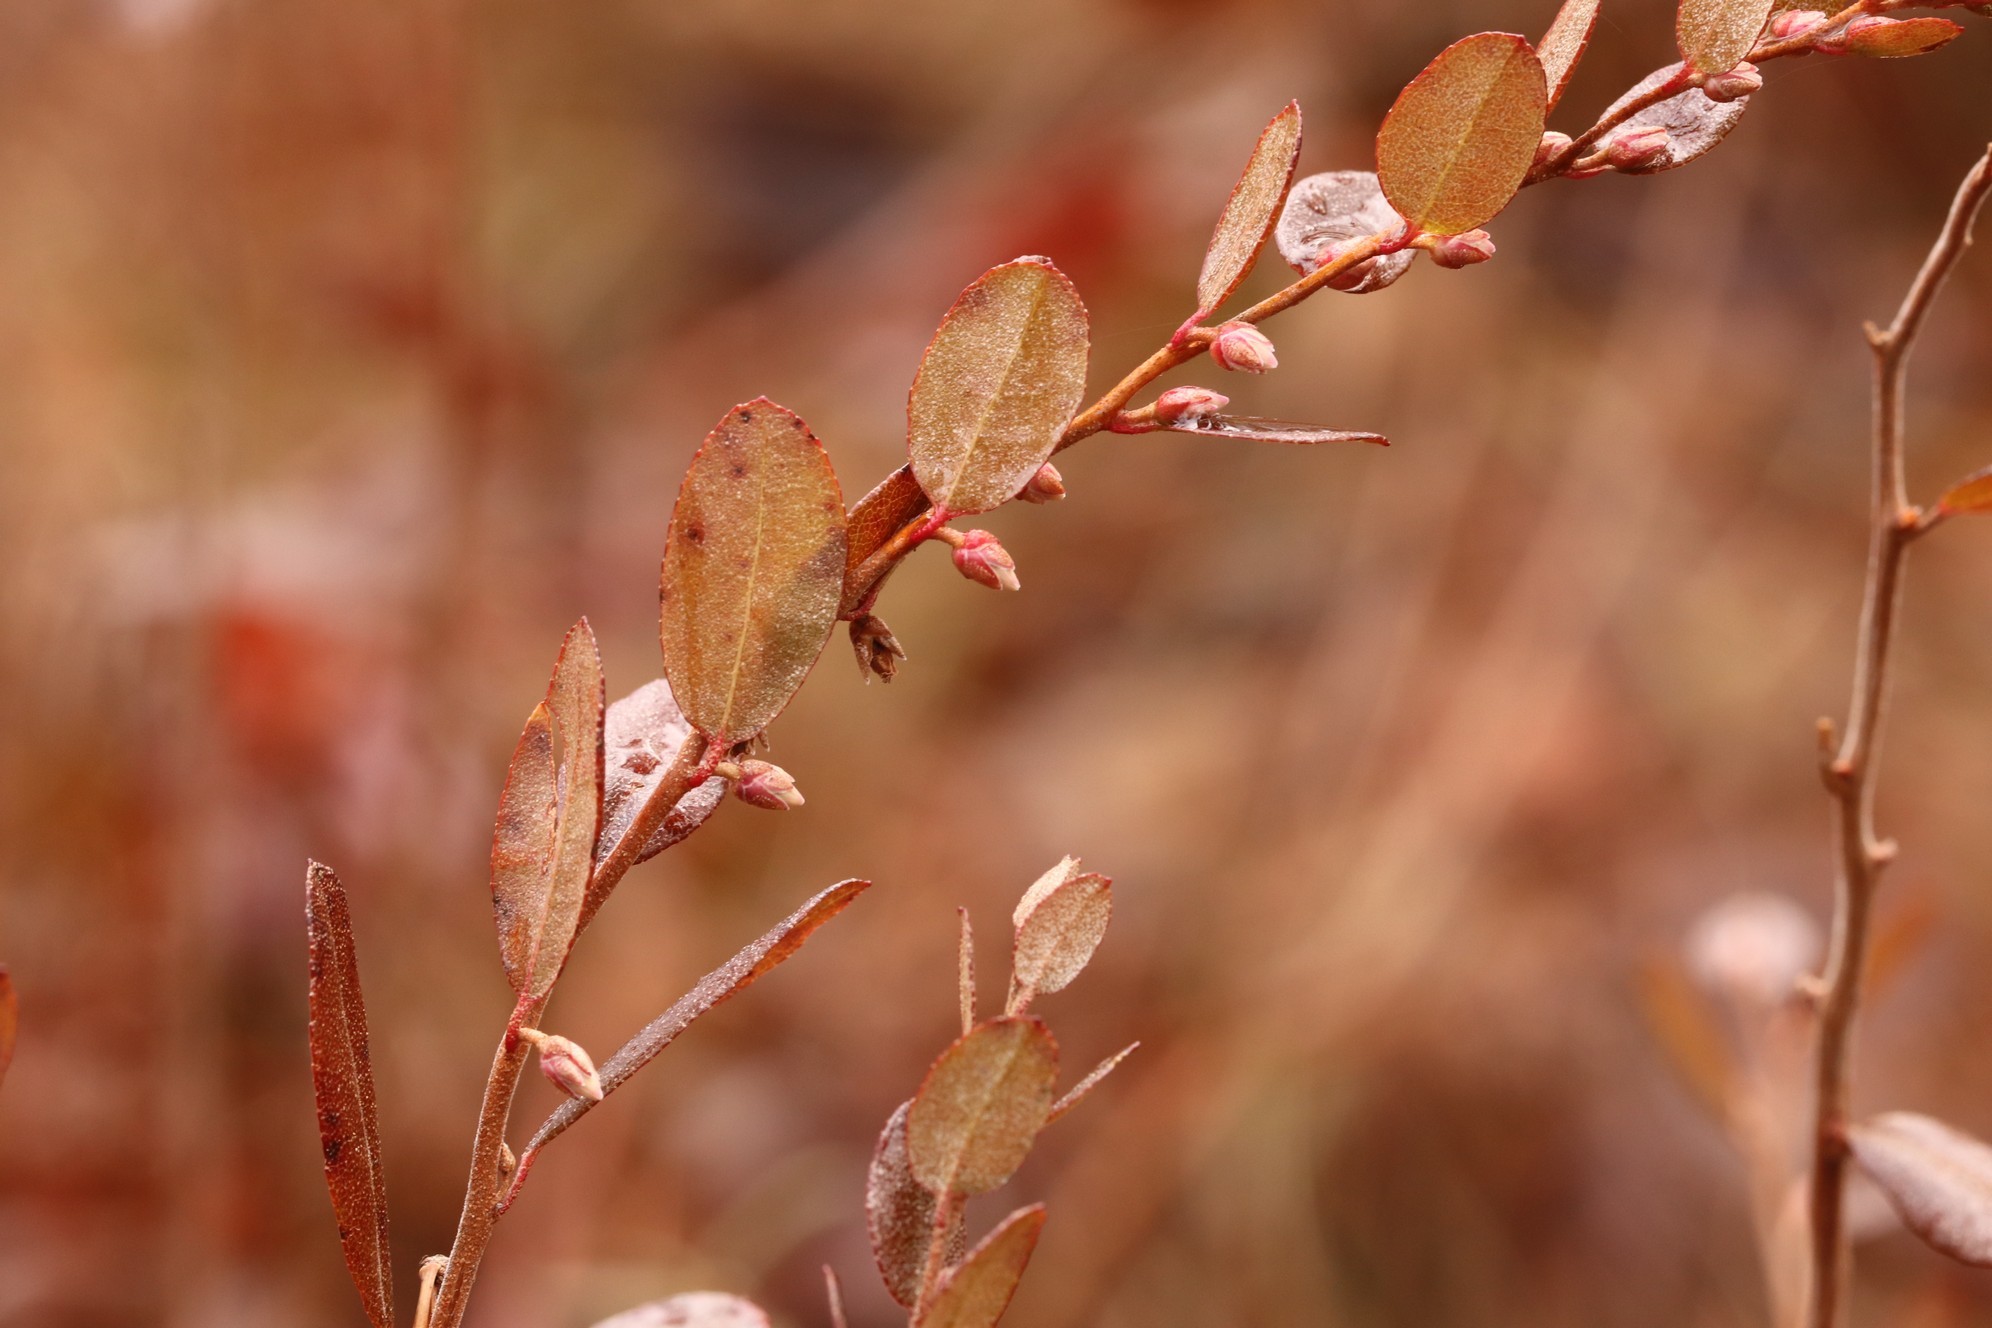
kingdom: Plantae
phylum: Tracheophyta
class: Magnoliopsida
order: Ericales
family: Ericaceae
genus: Chamaedaphne
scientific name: Chamaedaphne calyculata
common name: Leatherleaf
